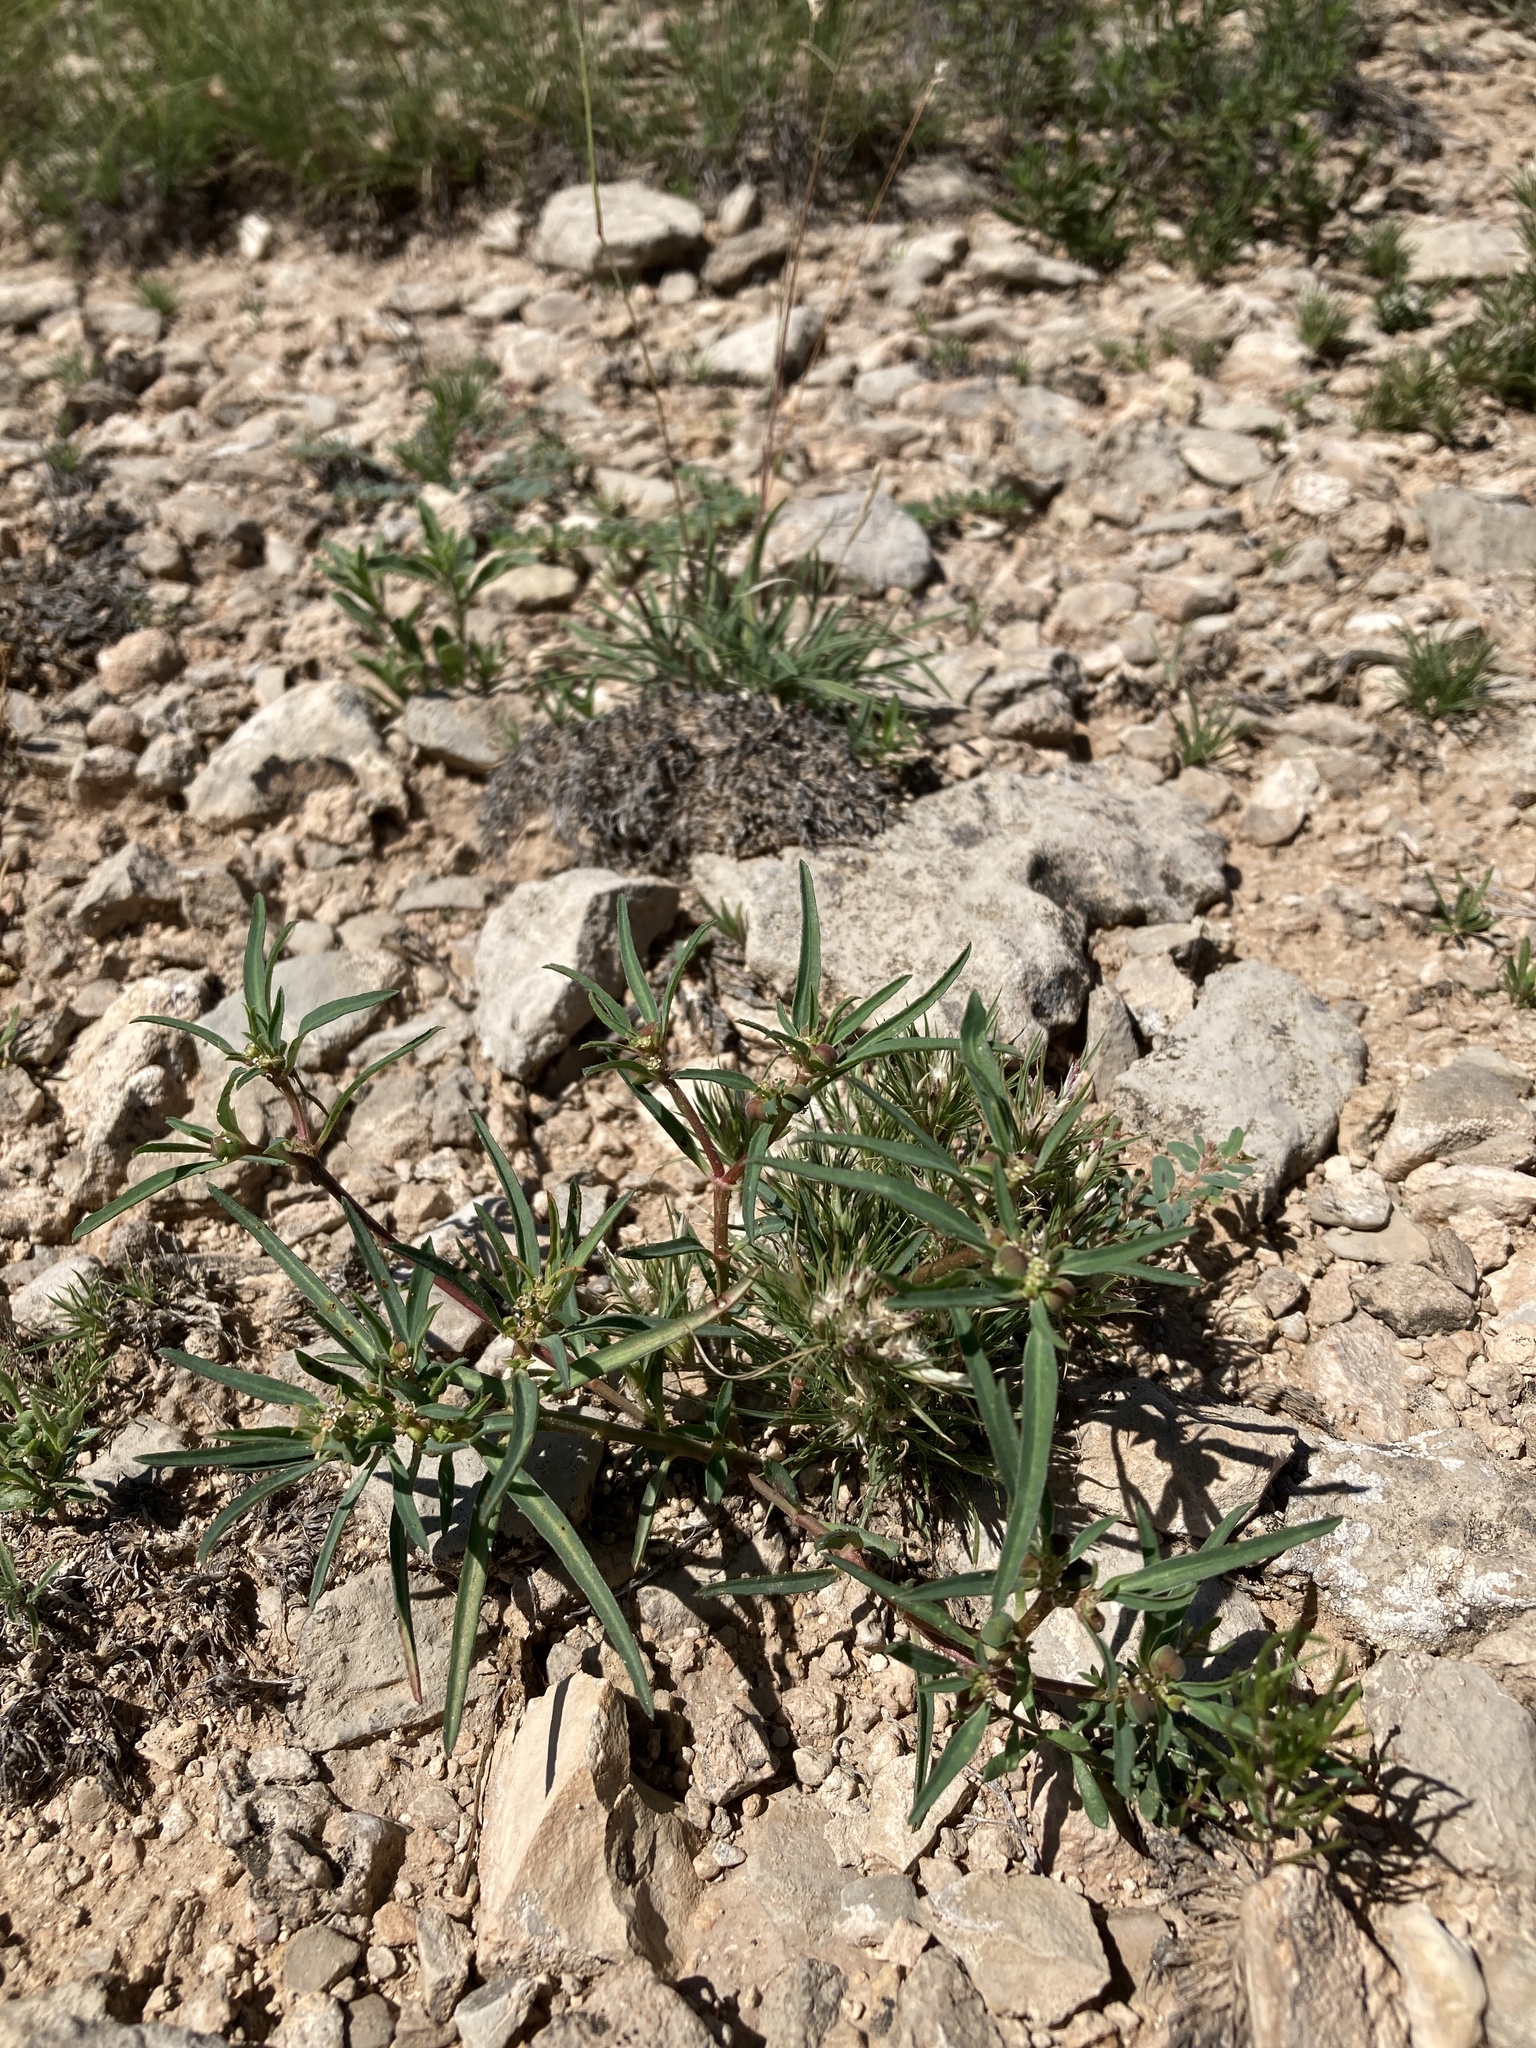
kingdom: Plantae
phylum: Tracheophyta
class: Magnoliopsida
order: Malpighiales
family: Euphorbiaceae
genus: Euphorbia
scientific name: Euphorbia exstipulata
